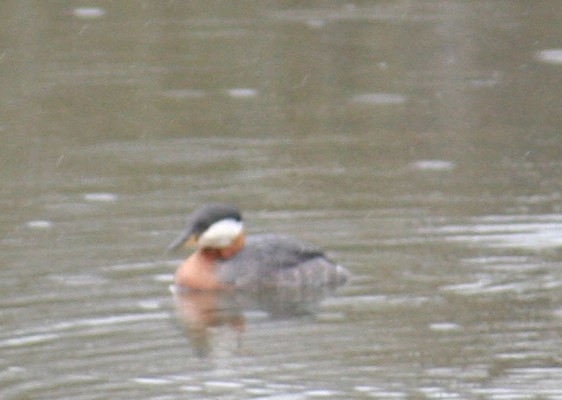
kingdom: Animalia
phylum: Chordata
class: Aves
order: Podicipediformes
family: Podicipedidae
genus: Podiceps
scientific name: Podiceps grisegena
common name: Red-necked grebe
